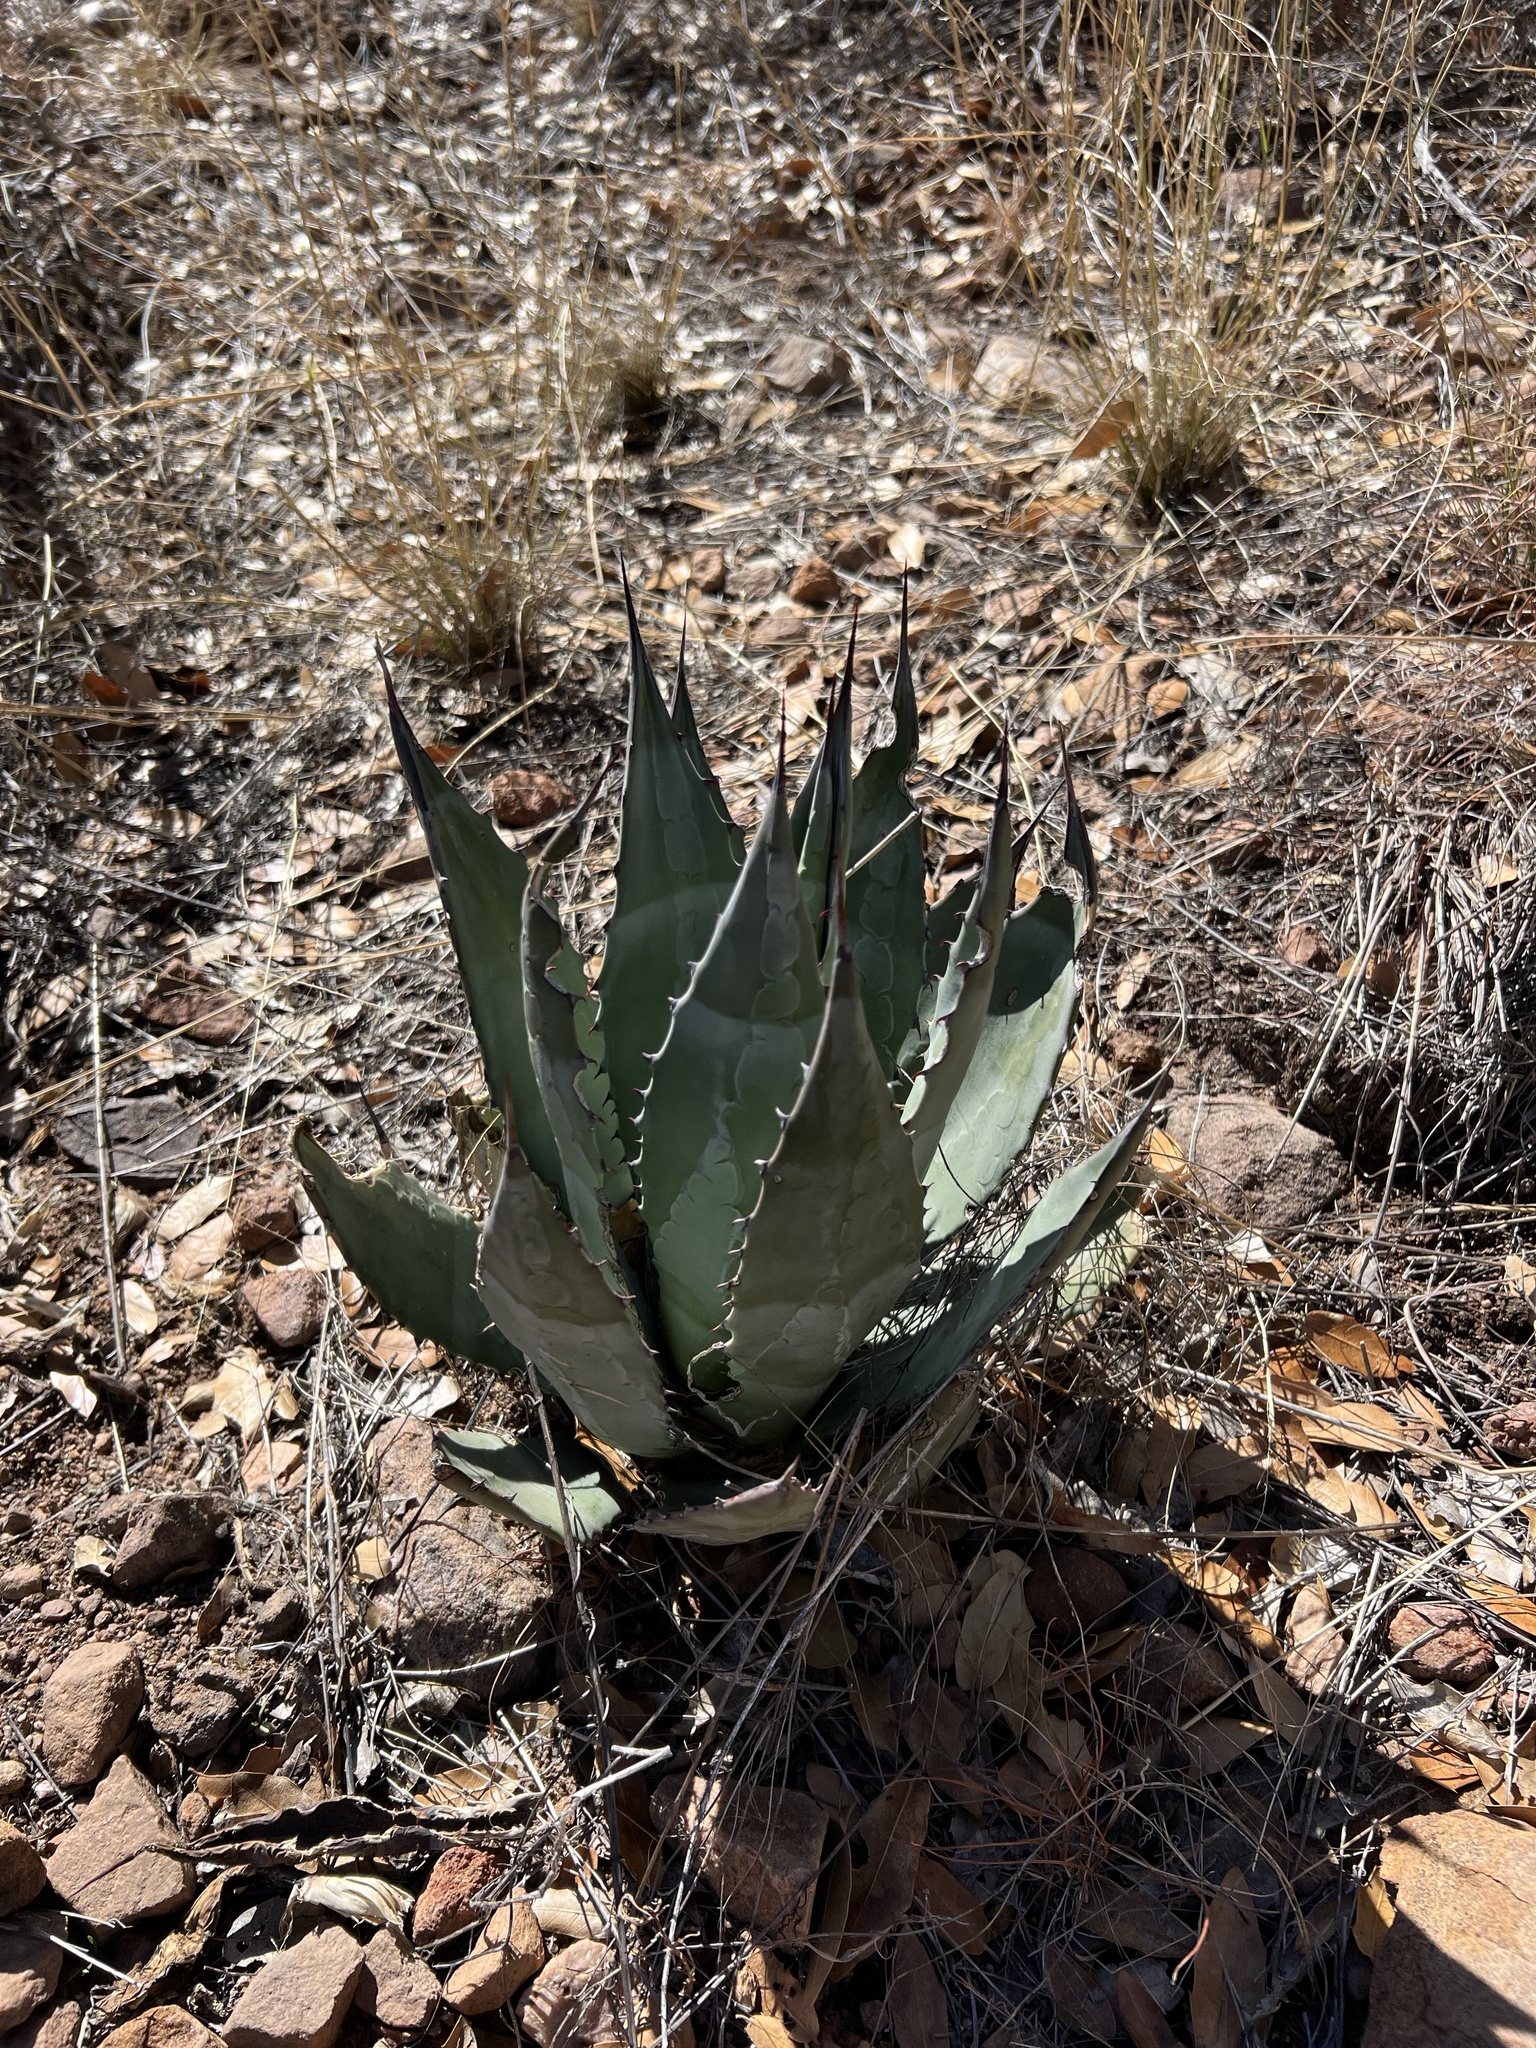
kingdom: Plantae
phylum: Tracheophyta
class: Liliopsida
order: Asparagales
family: Asparagaceae
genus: Agave
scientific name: Agave parryi
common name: Parry's agave
